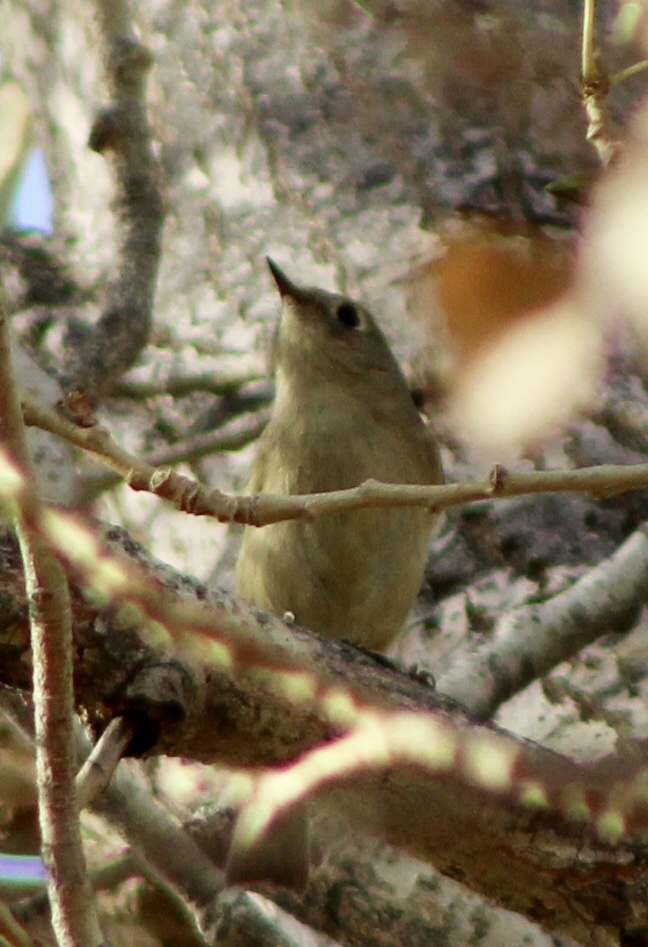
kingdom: Animalia
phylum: Chordata
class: Aves
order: Passeriformes
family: Regulidae
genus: Regulus
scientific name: Regulus calendula
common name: Ruby-crowned kinglet
